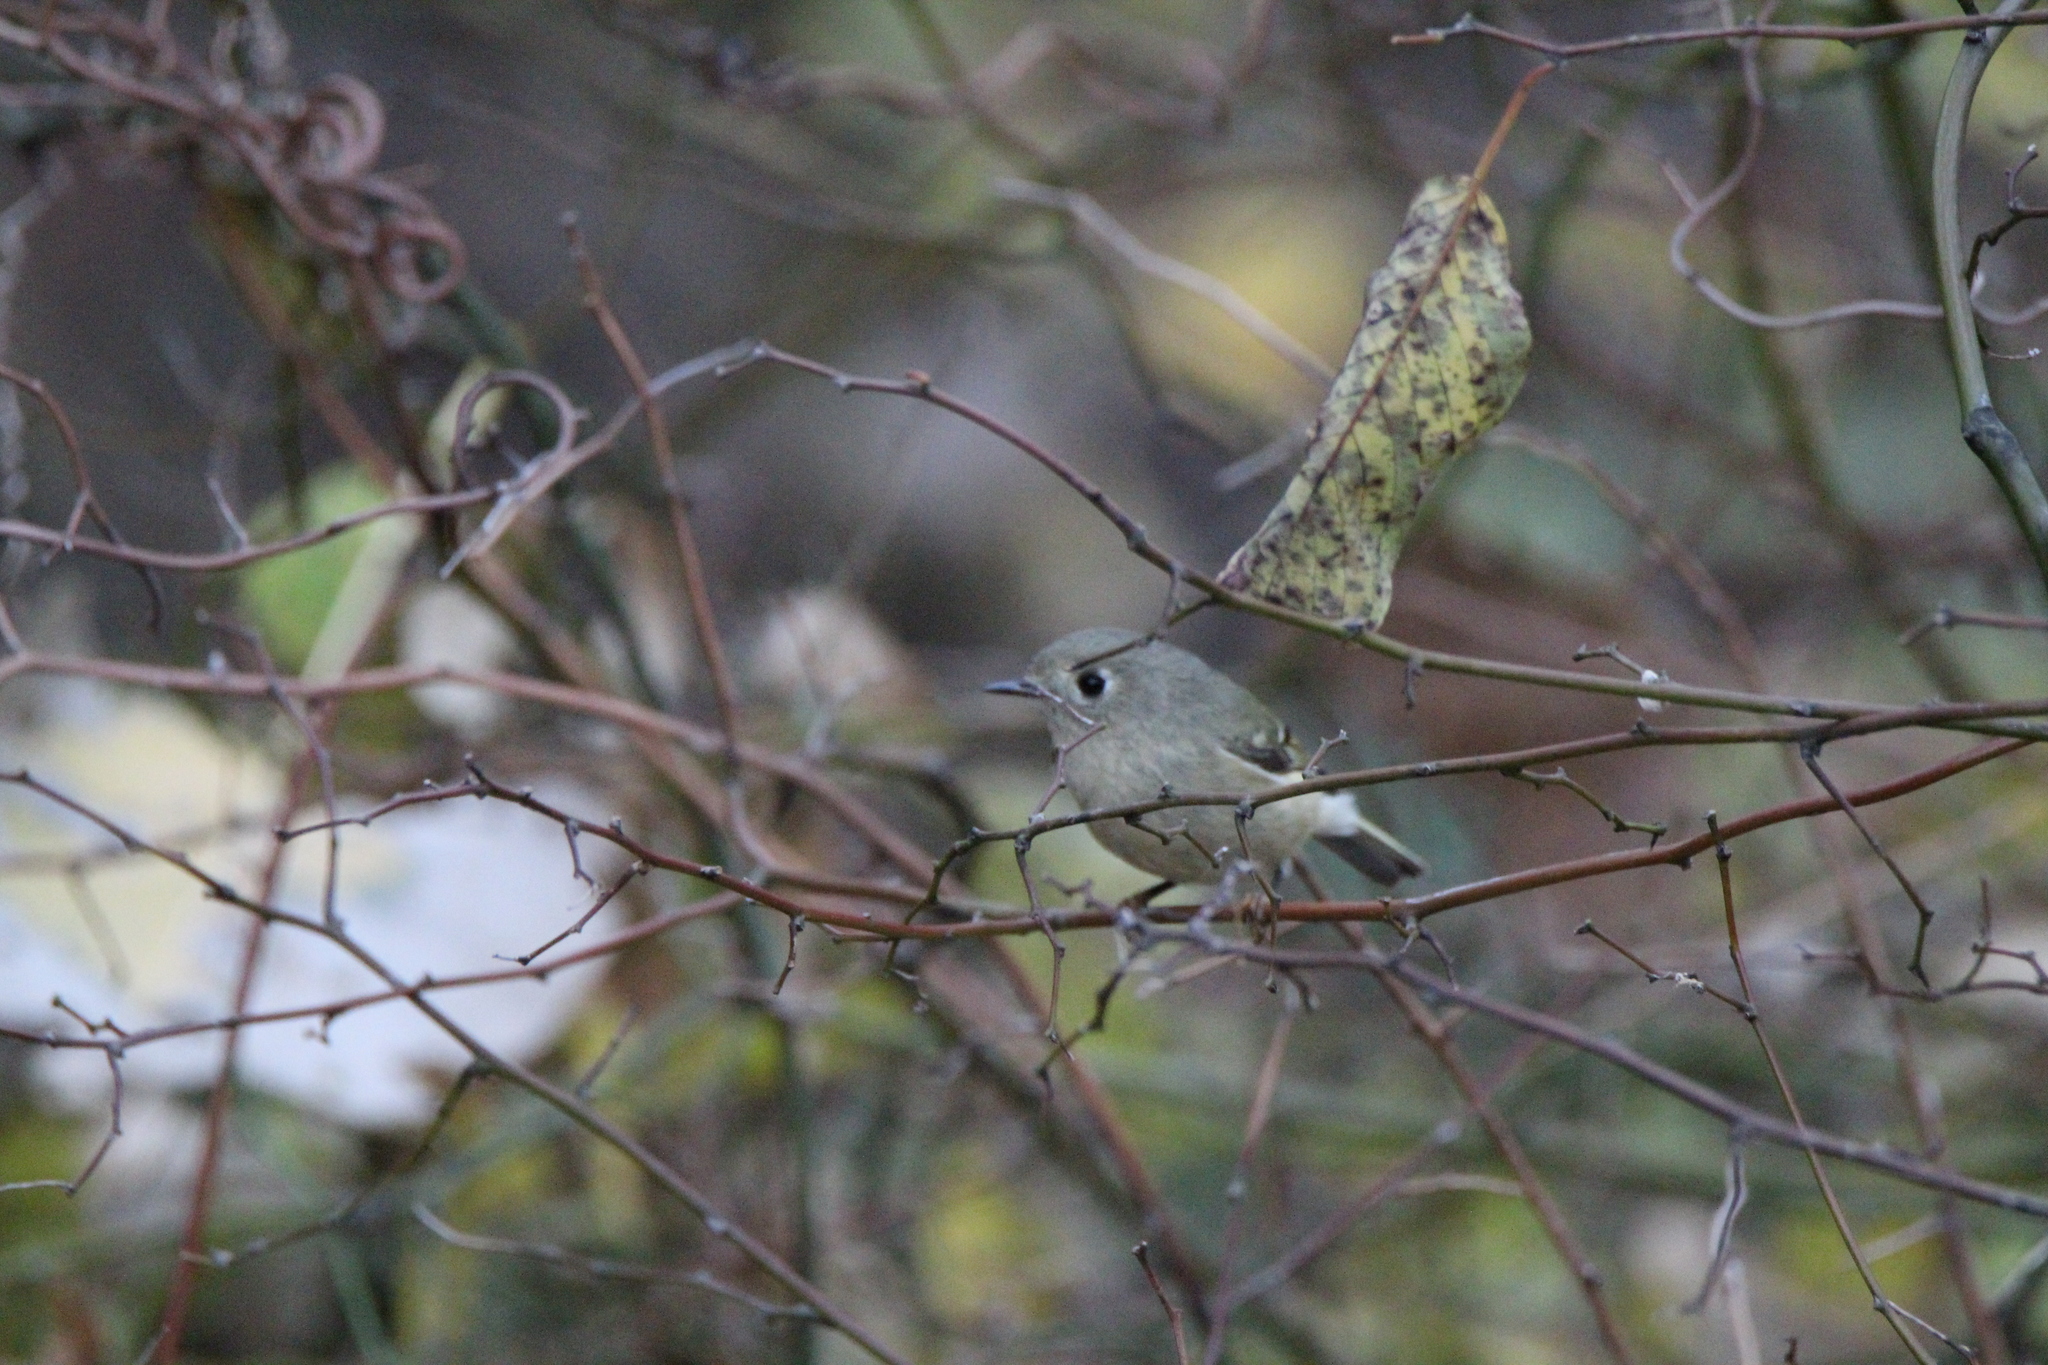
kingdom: Animalia
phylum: Chordata
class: Aves
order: Passeriformes
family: Regulidae
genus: Regulus
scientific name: Regulus calendula
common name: Ruby-crowned kinglet
